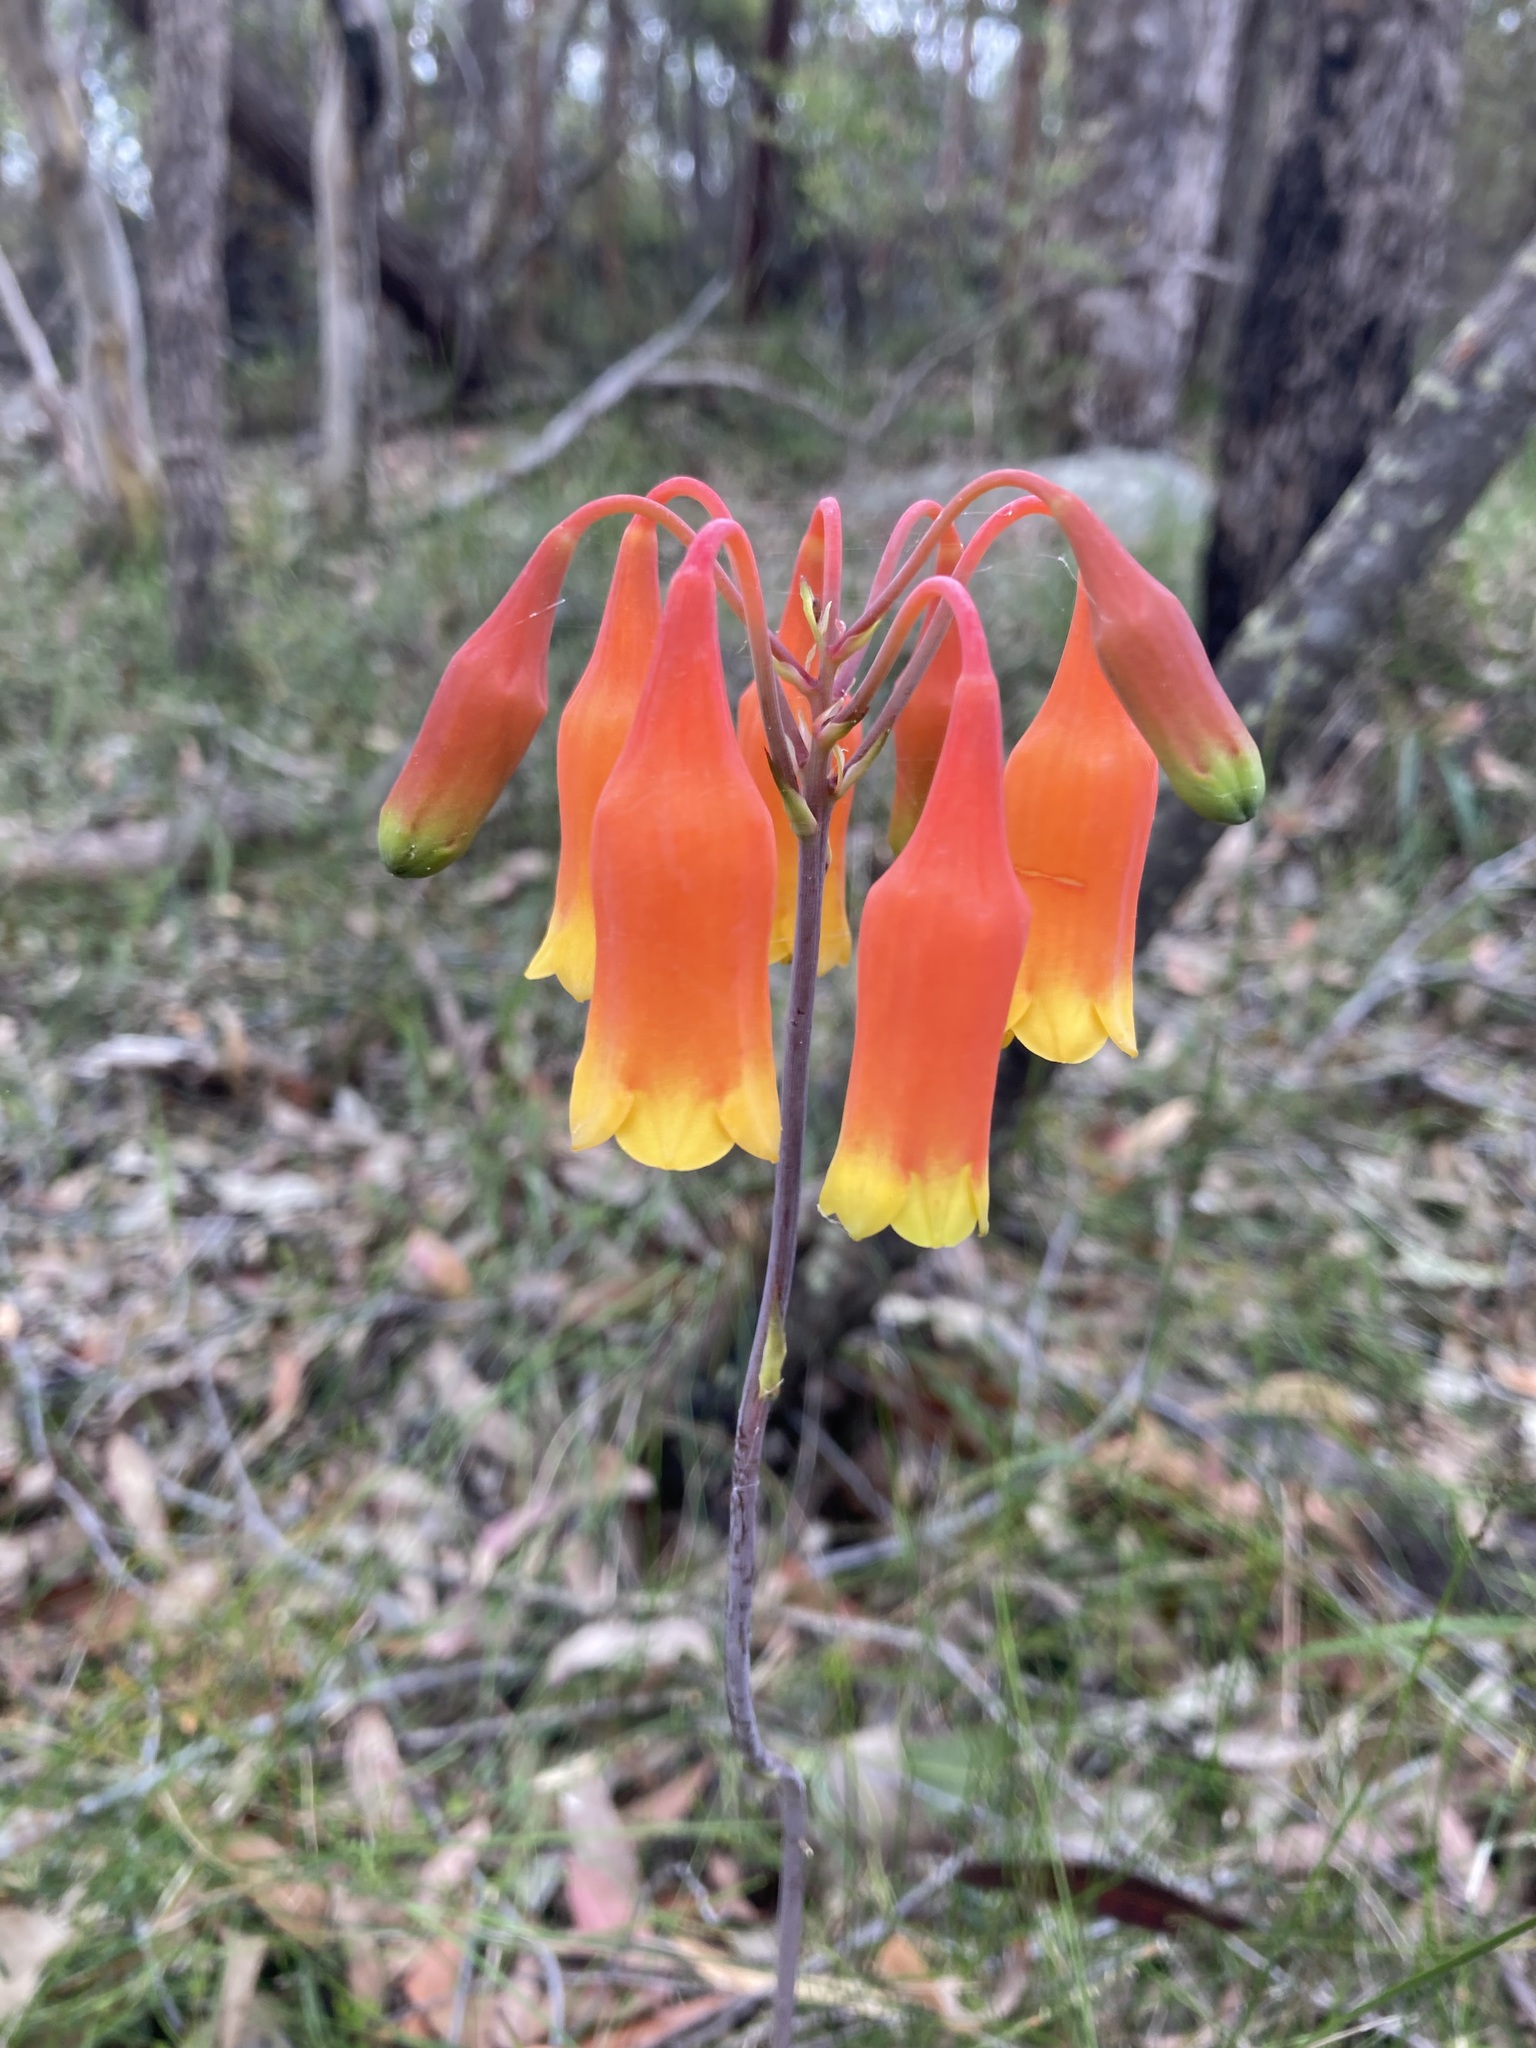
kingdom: Plantae
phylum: Tracheophyta
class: Liliopsida
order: Asparagales
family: Blandfordiaceae
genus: Blandfordia
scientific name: Blandfordia nobilis
